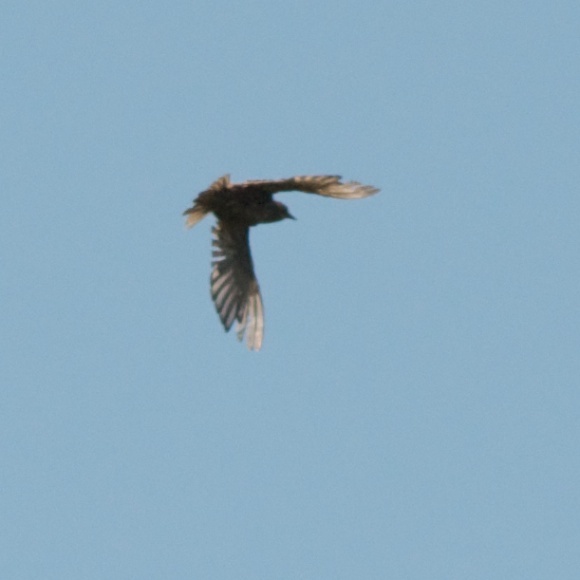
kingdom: Animalia
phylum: Chordata
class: Aves
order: Passeriformes
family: Sturnidae
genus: Sturnus
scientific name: Sturnus vulgaris
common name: Common starling
